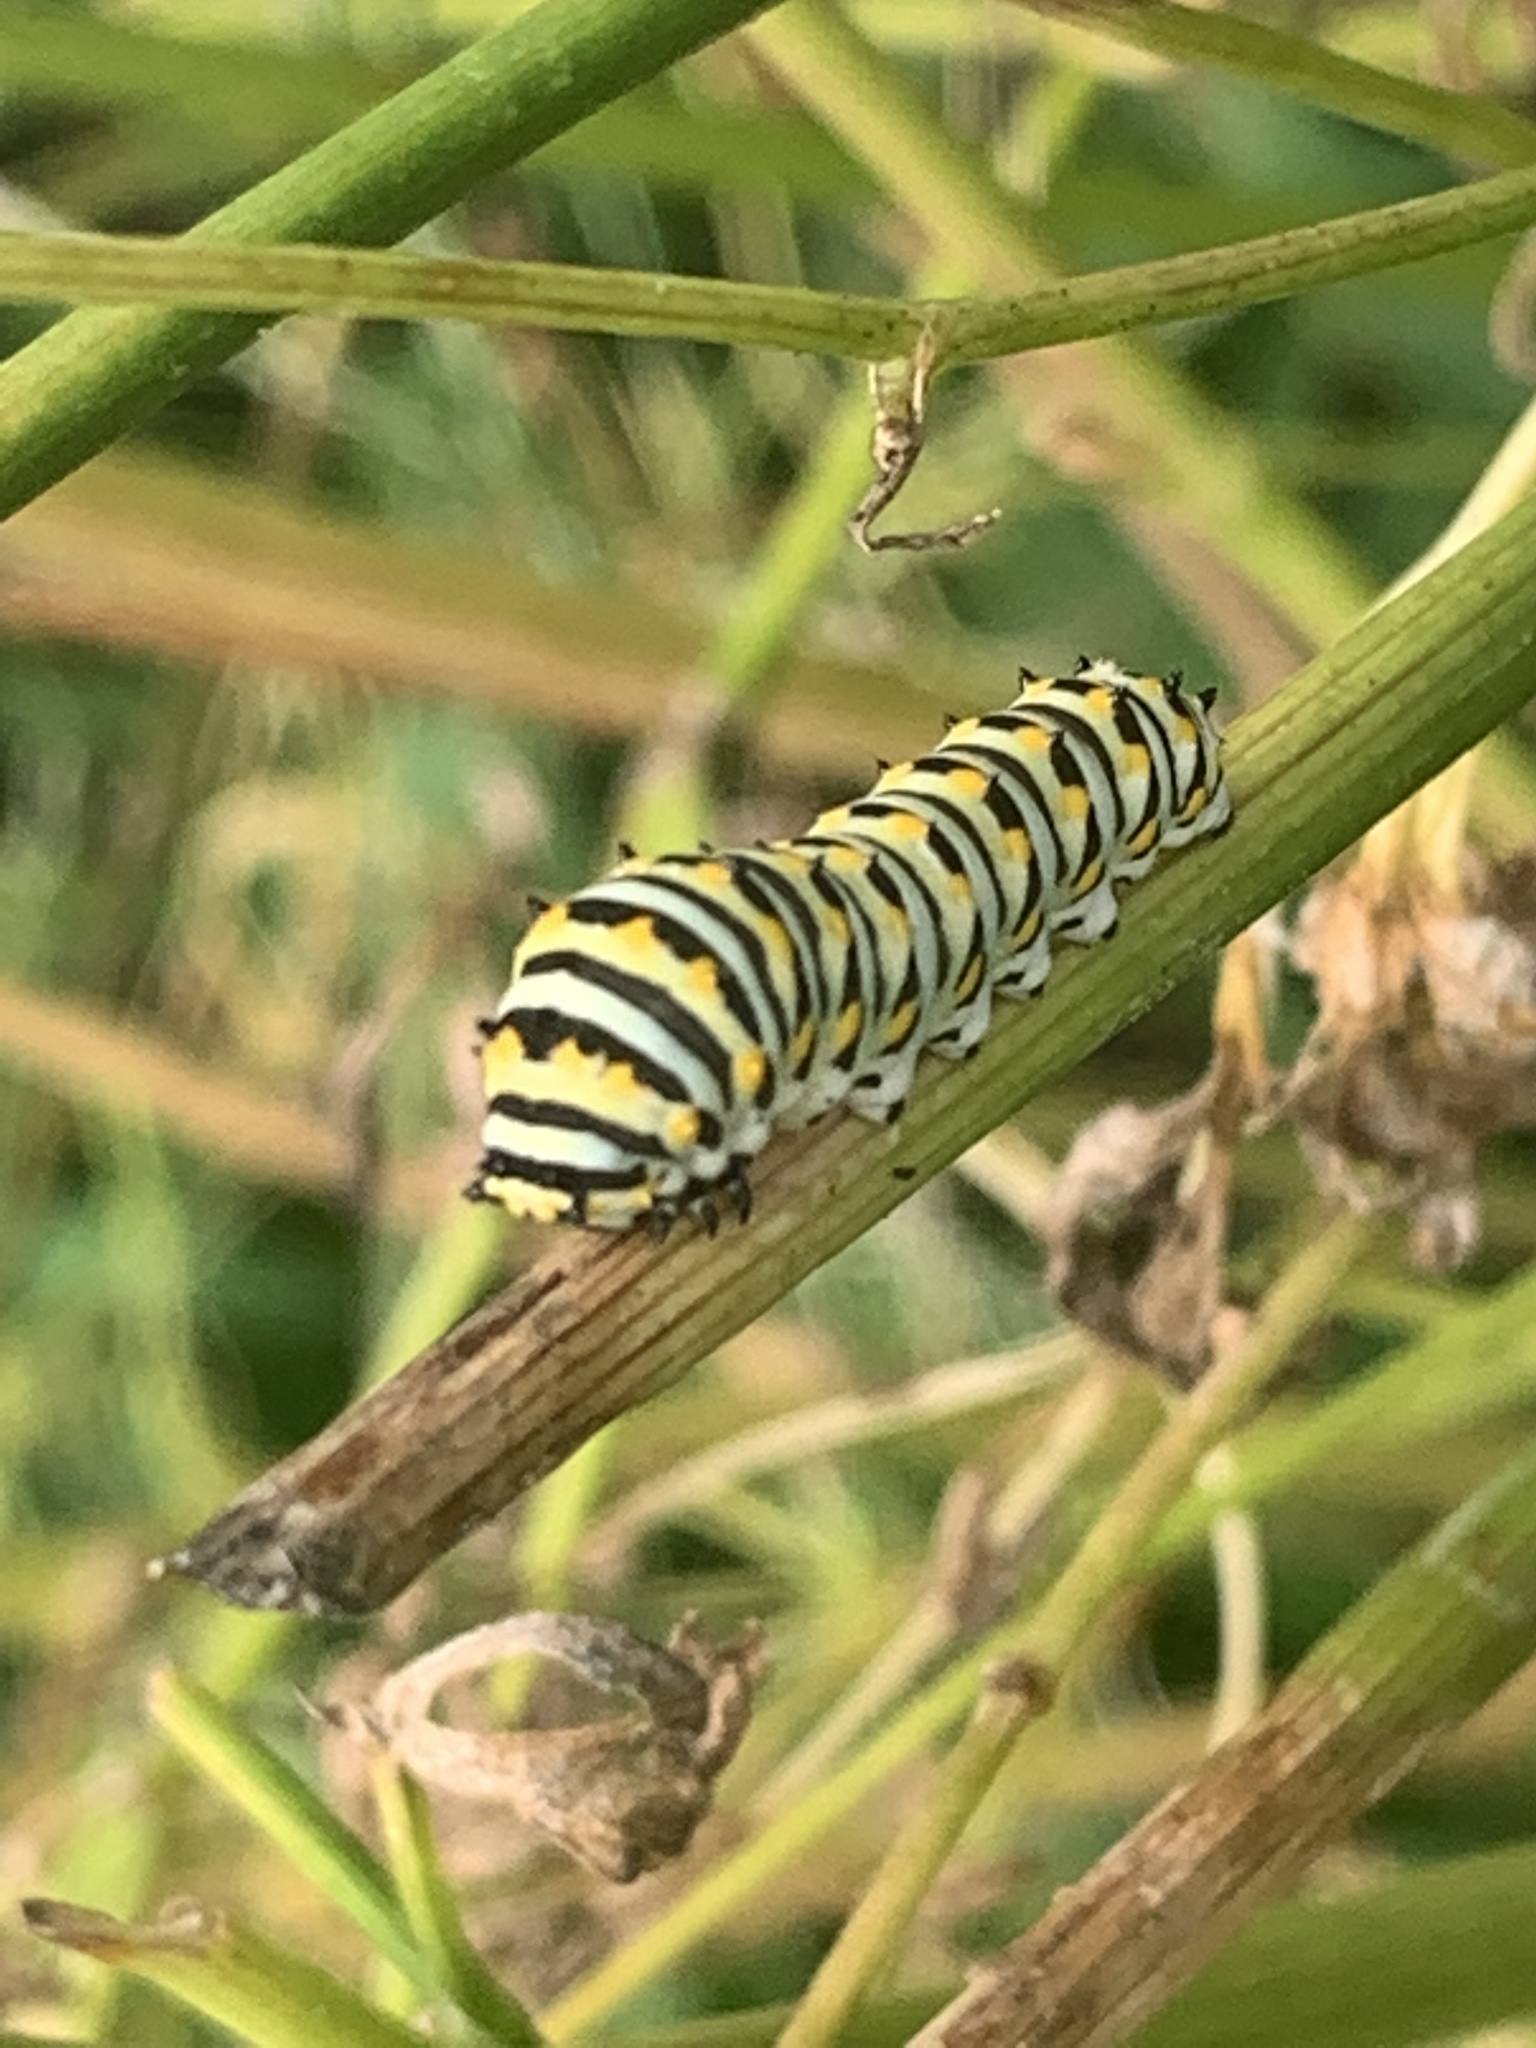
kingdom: Animalia
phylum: Arthropoda
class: Insecta
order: Lepidoptera
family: Papilionidae
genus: Papilio
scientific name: Papilio polyxenes
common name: Black swallowtail
